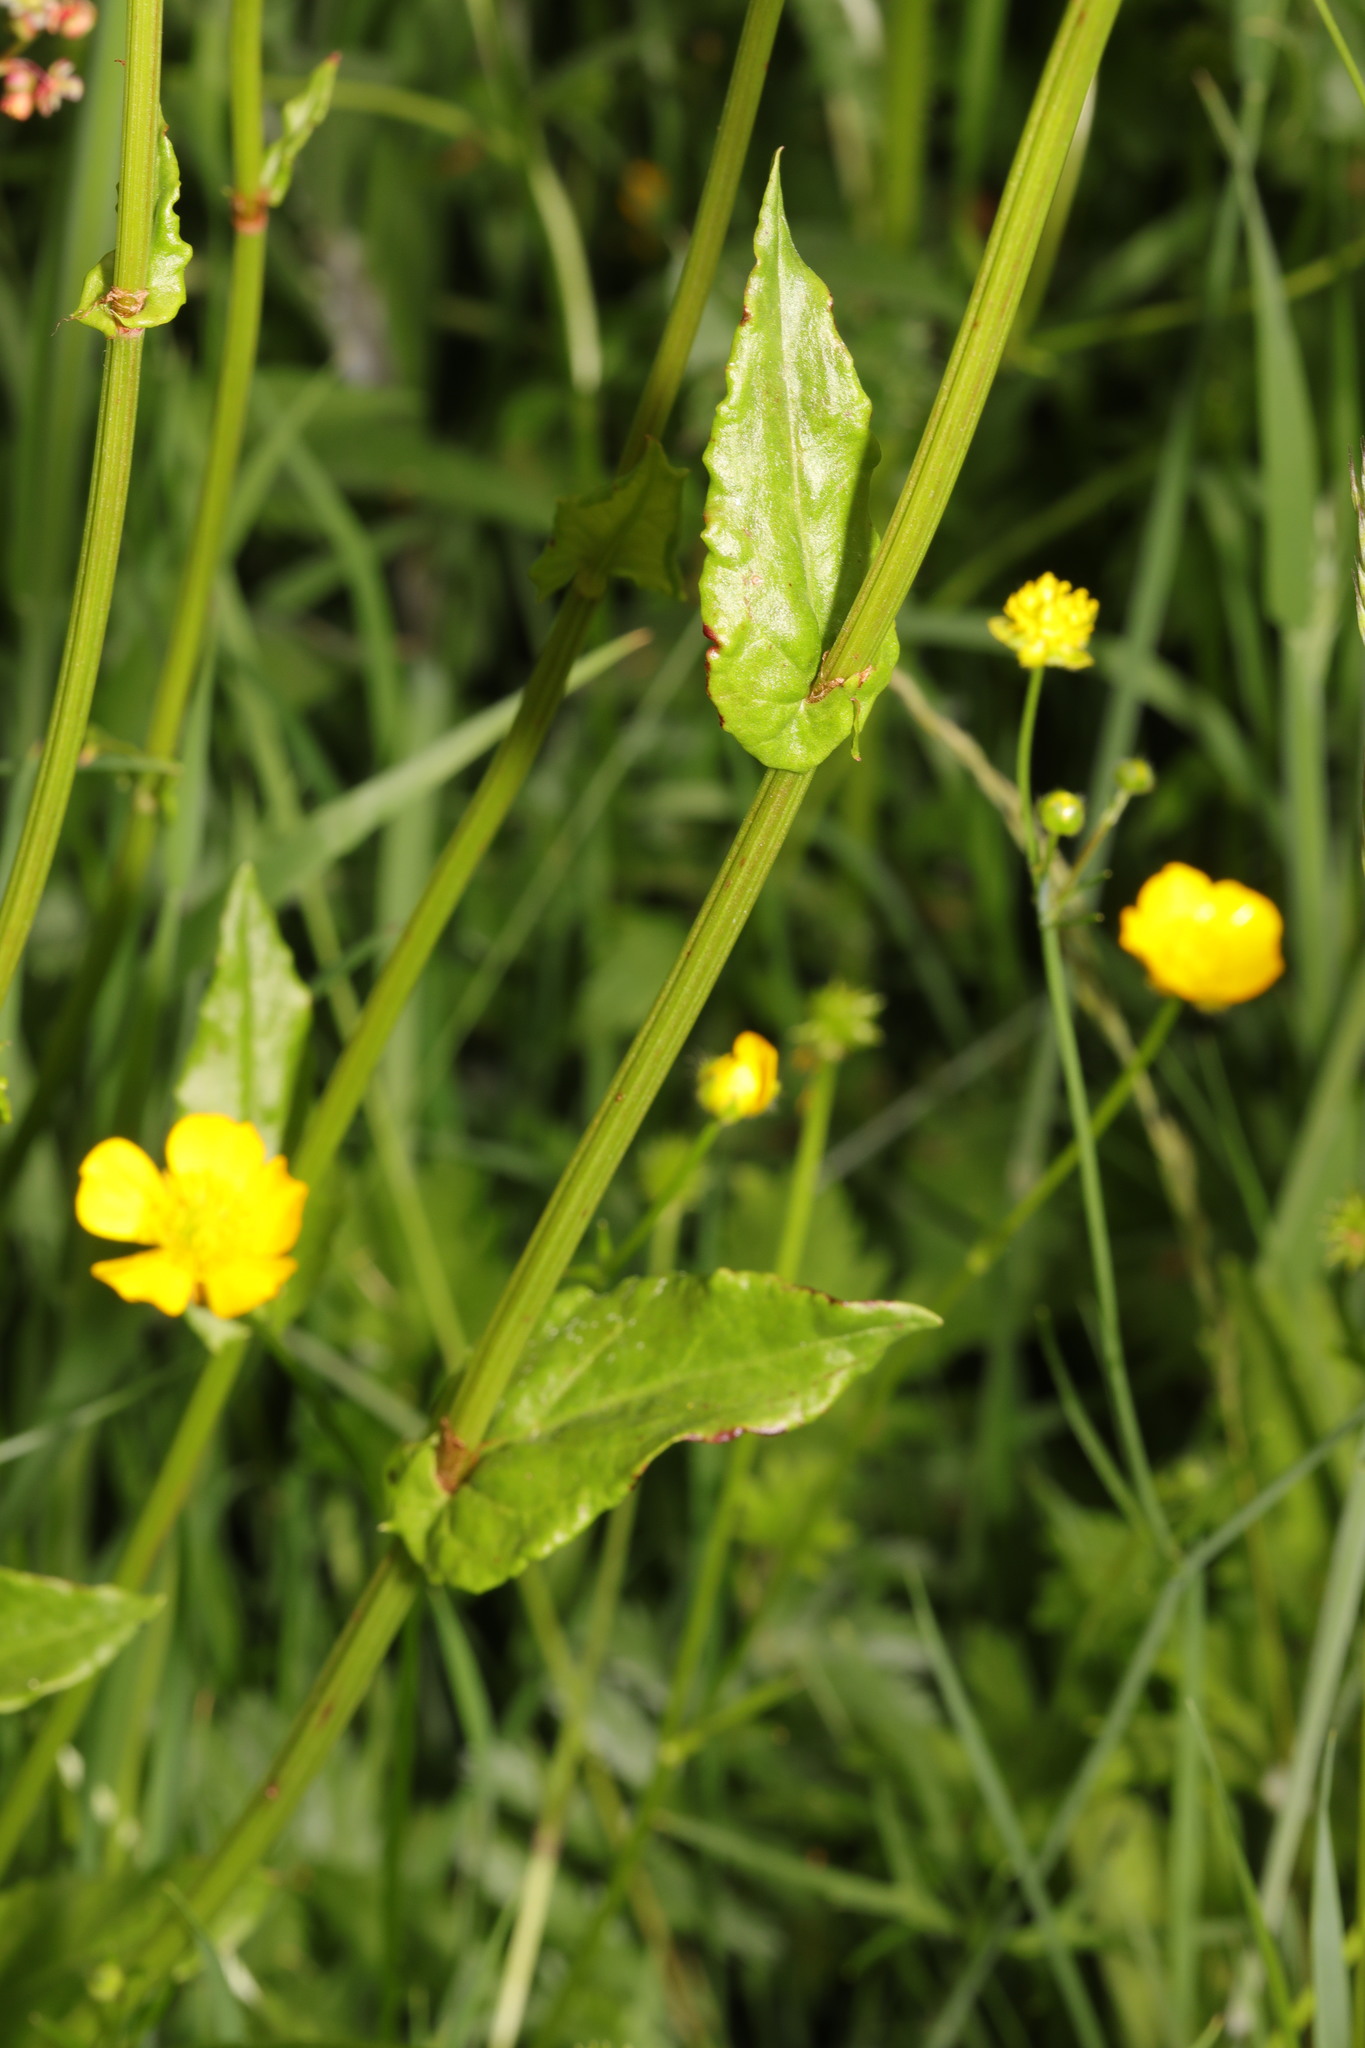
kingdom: Plantae
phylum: Tracheophyta
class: Magnoliopsida
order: Caryophyllales
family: Polygonaceae
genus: Rumex
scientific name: Rumex acetosa
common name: Garden sorrel
